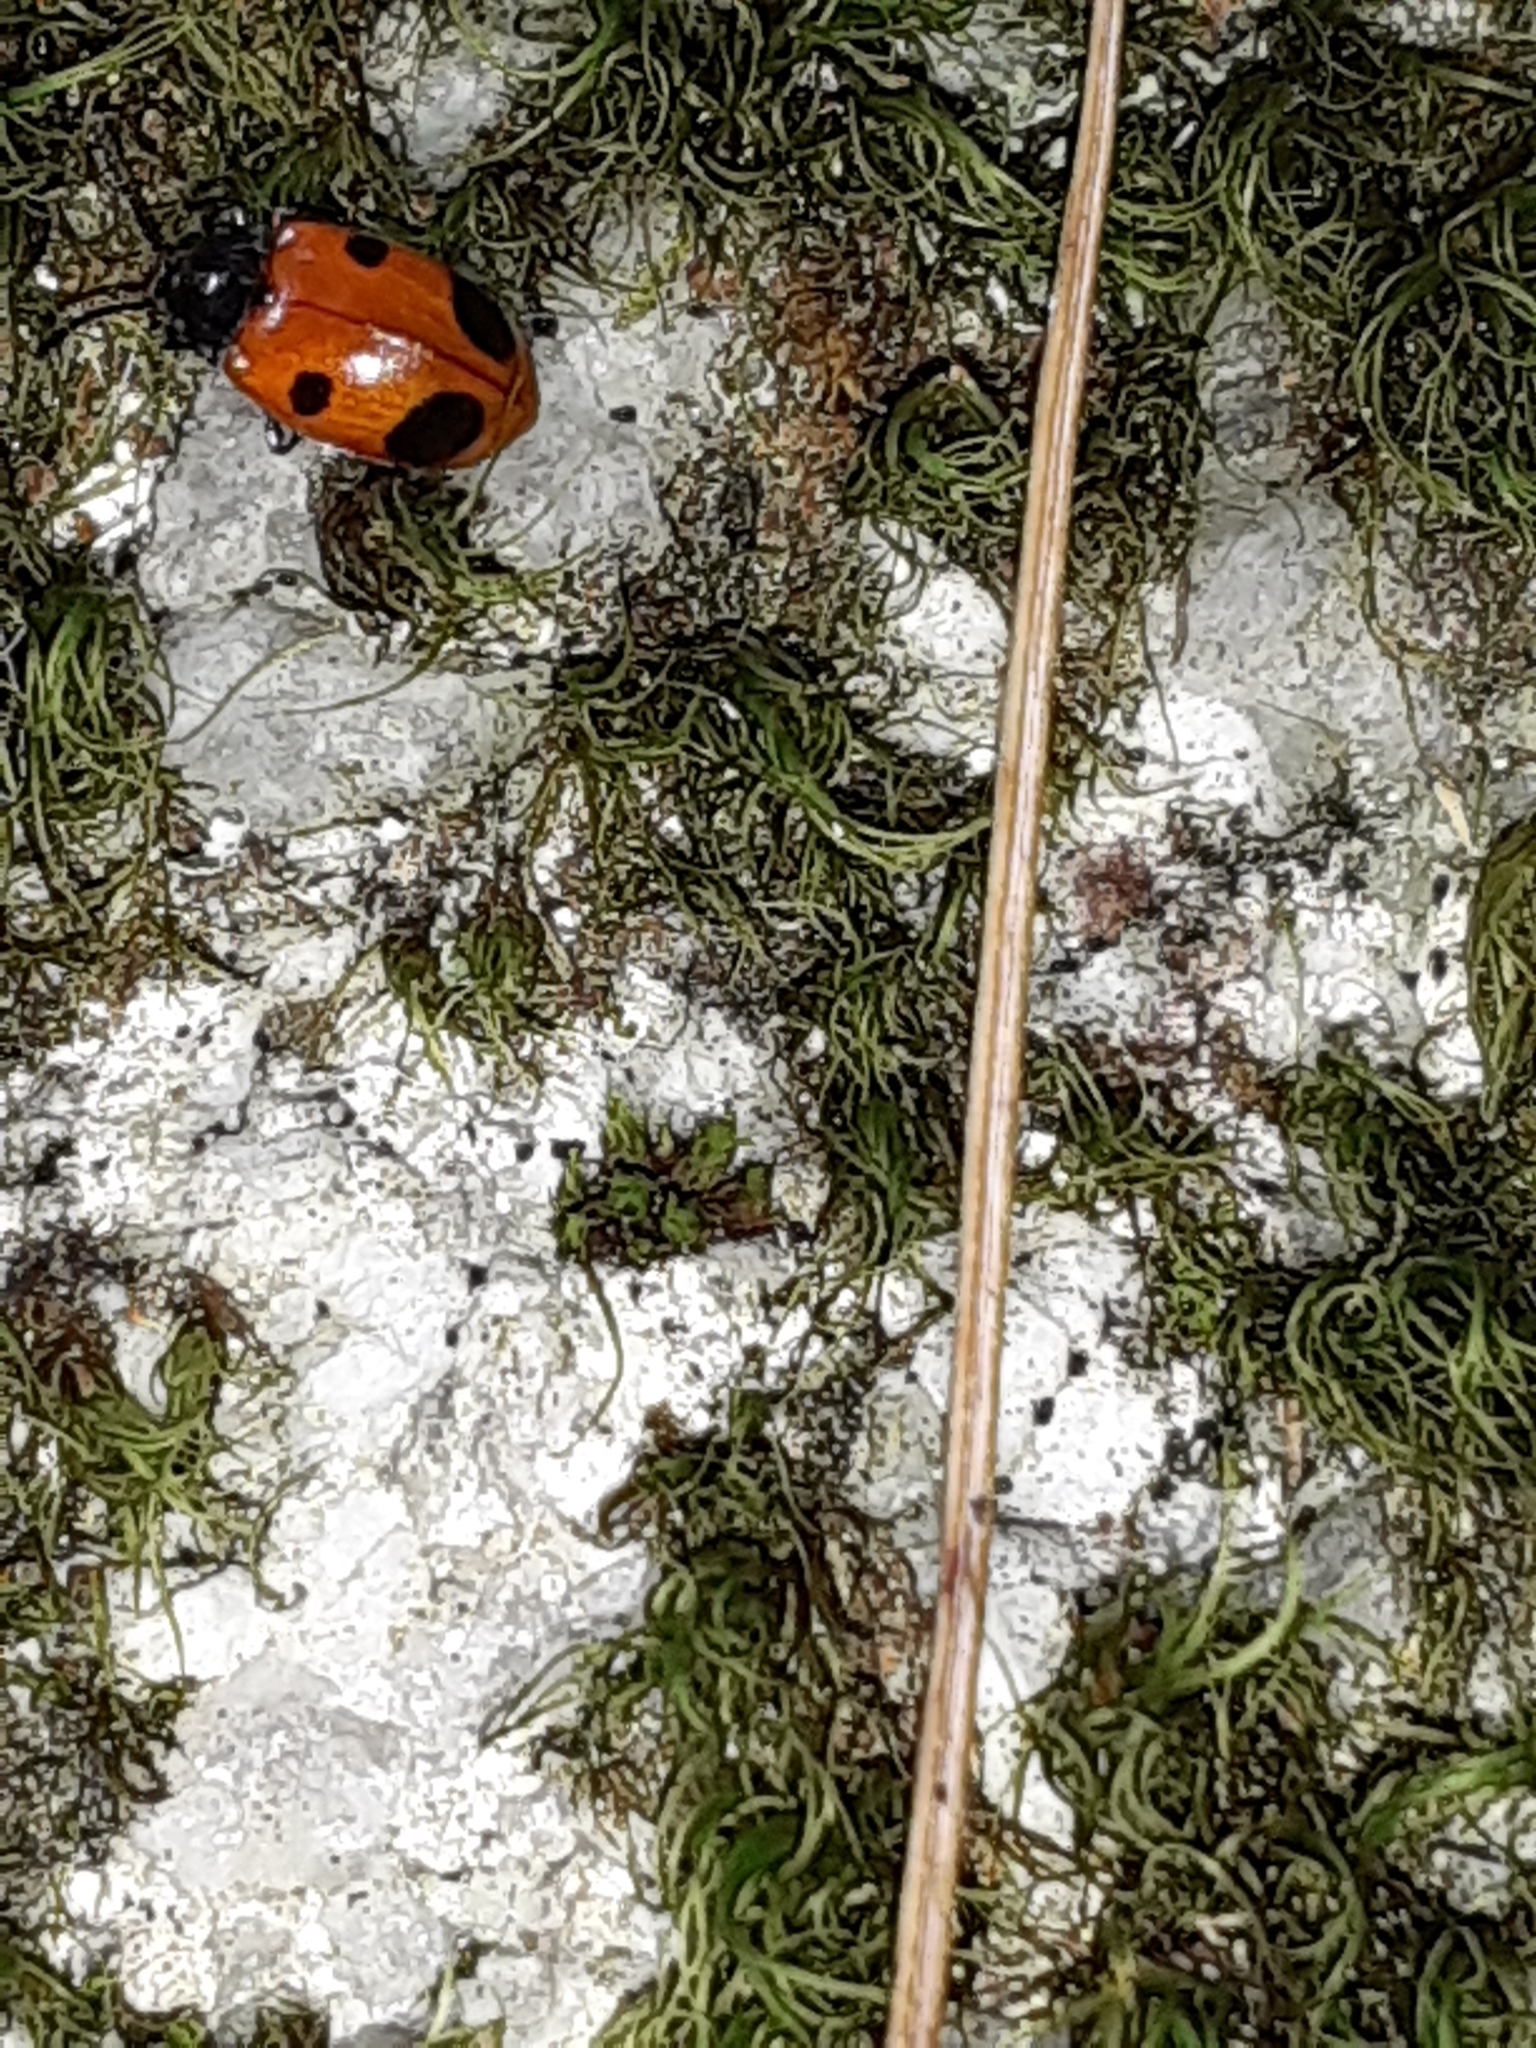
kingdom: Animalia
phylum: Arthropoda
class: Insecta
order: Coleoptera
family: Endomychidae
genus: Endomychus
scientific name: Endomychus biguttatus
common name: Handsome fungus beetle
